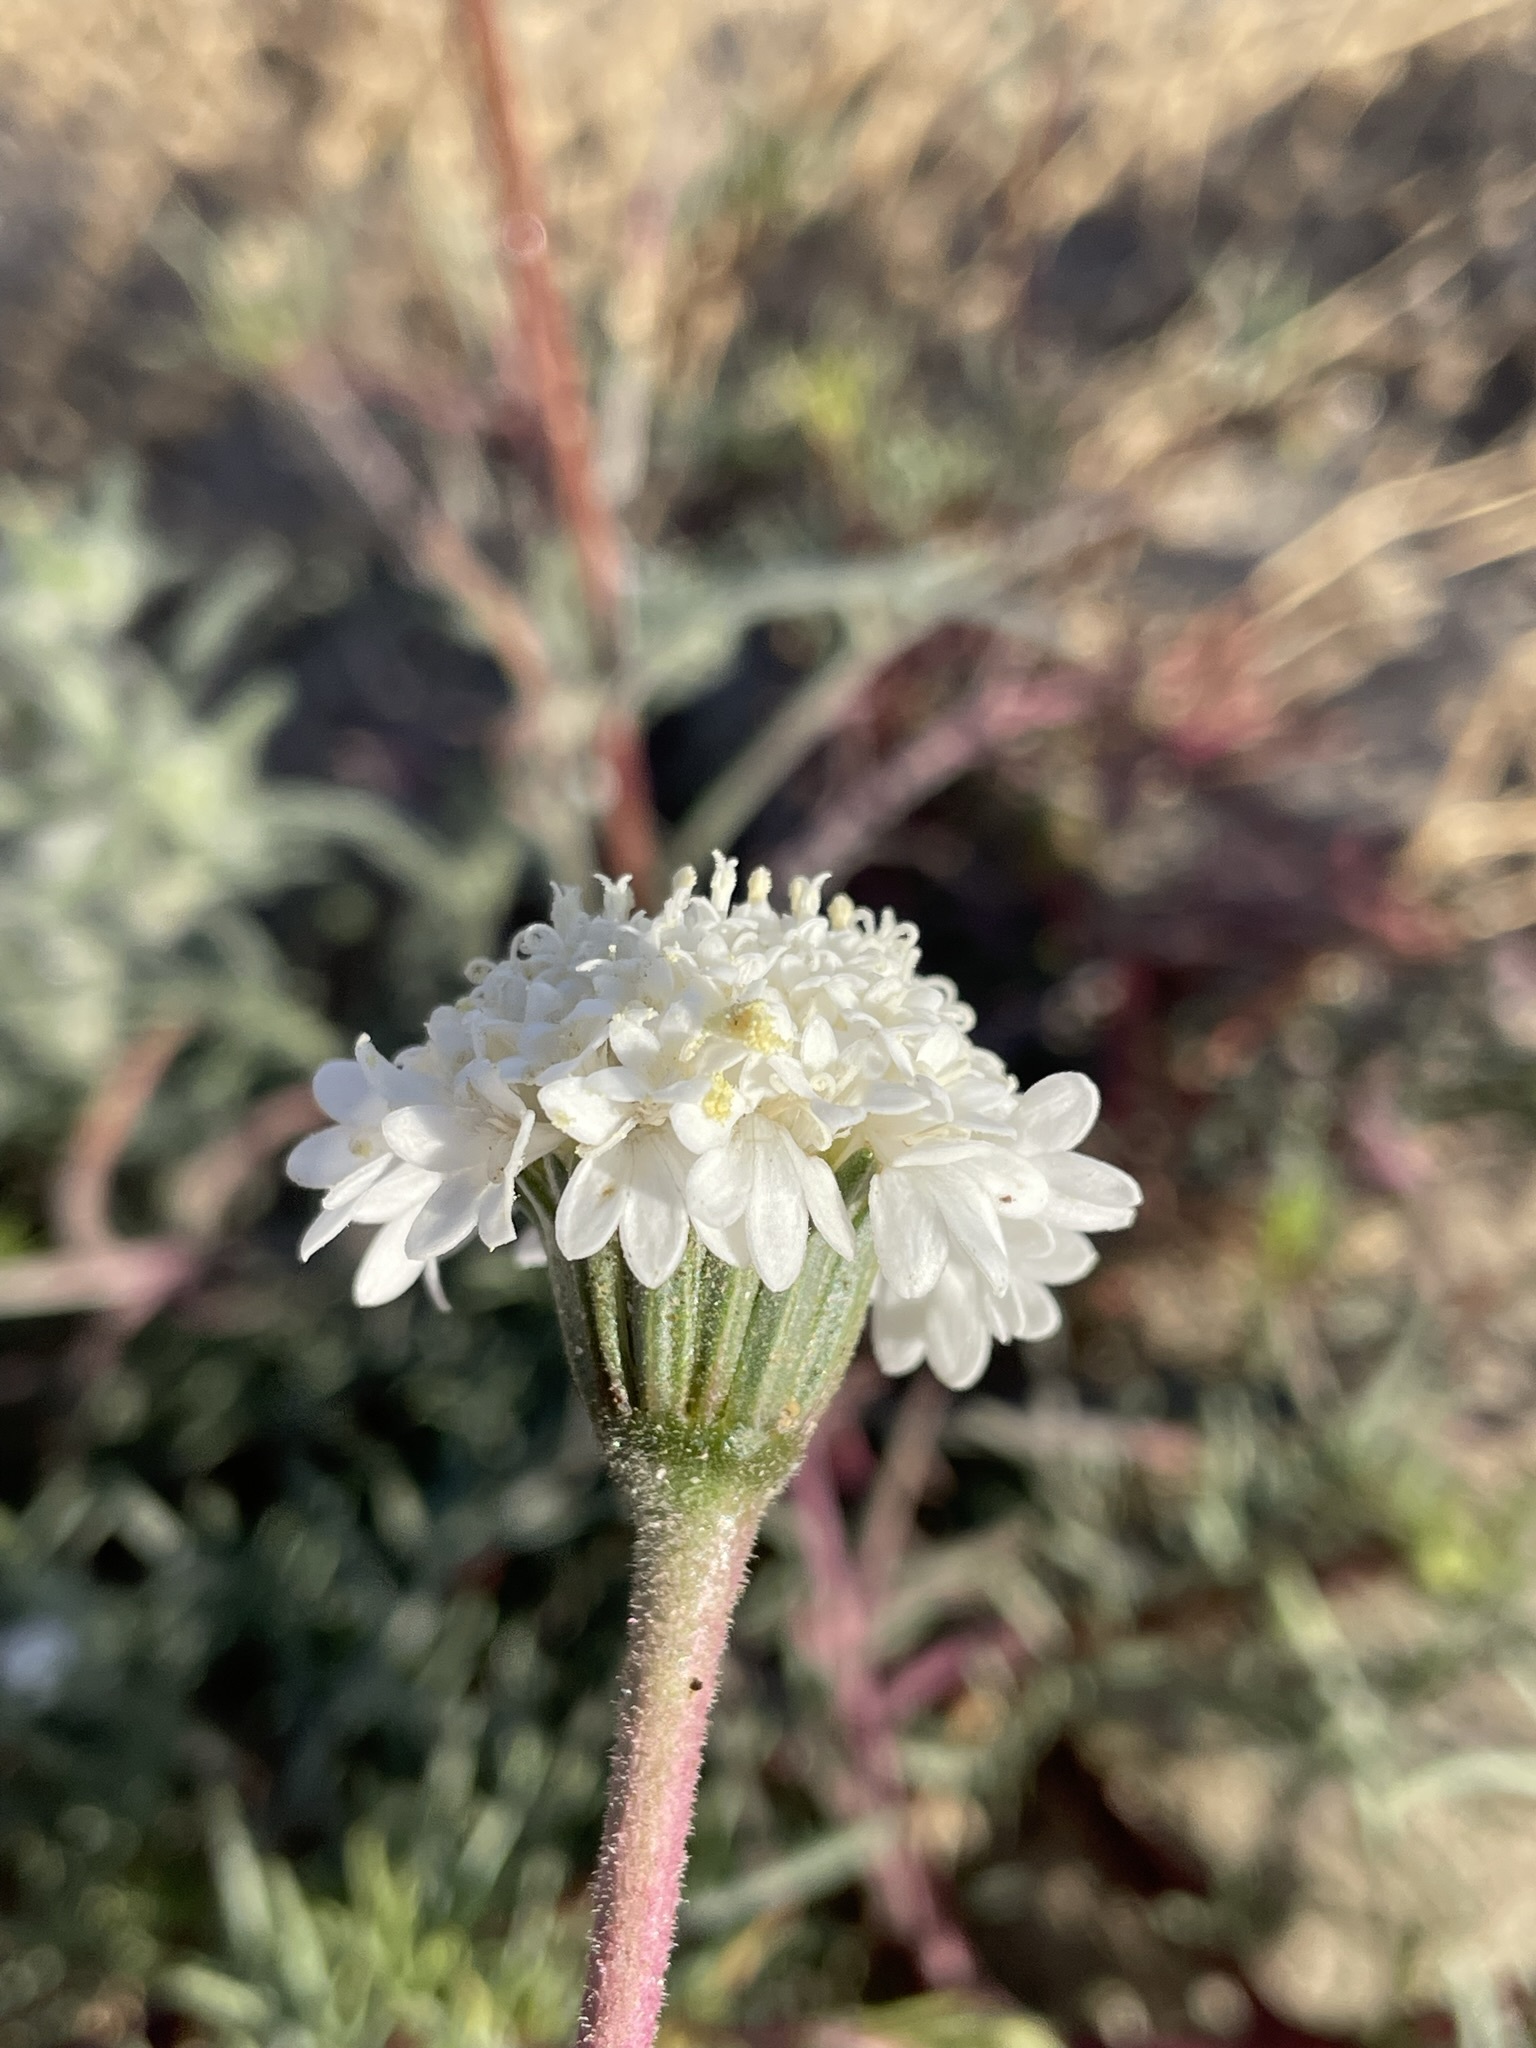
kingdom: Plantae
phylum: Tracheophyta
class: Magnoliopsida
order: Asterales
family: Asteraceae
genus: Chaenactis
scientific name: Chaenactis fremontii
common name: Fremont pincushion
